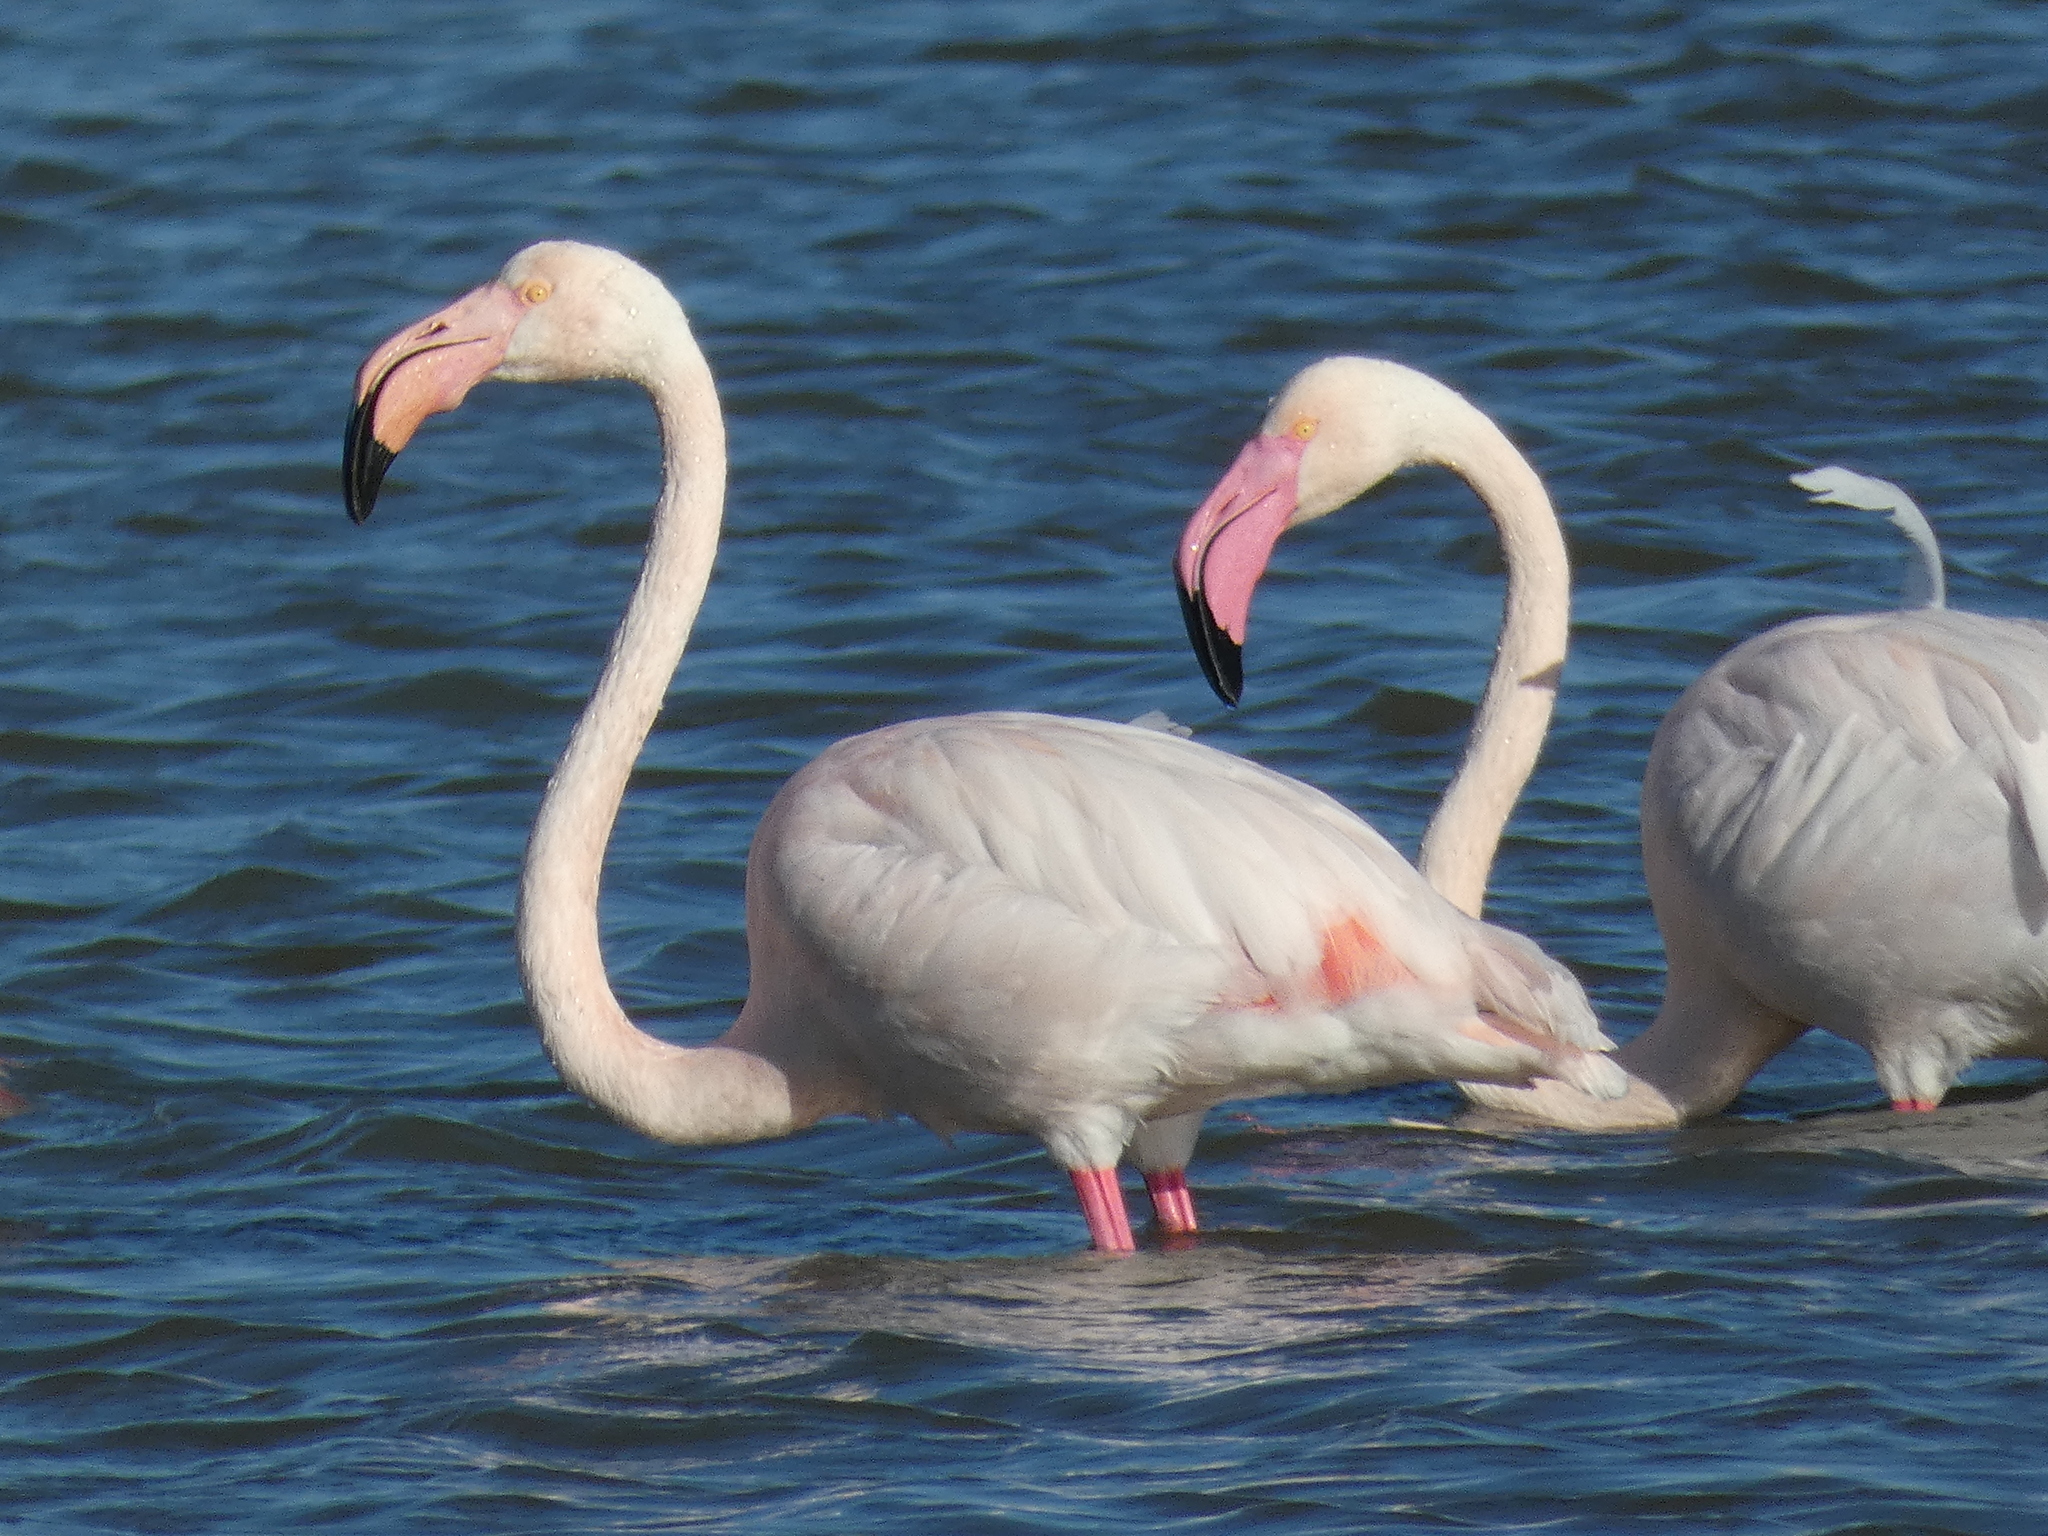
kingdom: Animalia
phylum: Chordata
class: Aves
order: Phoenicopteriformes
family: Phoenicopteridae
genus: Phoenicopterus
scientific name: Phoenicopterus roseus
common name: Greater flamingo
